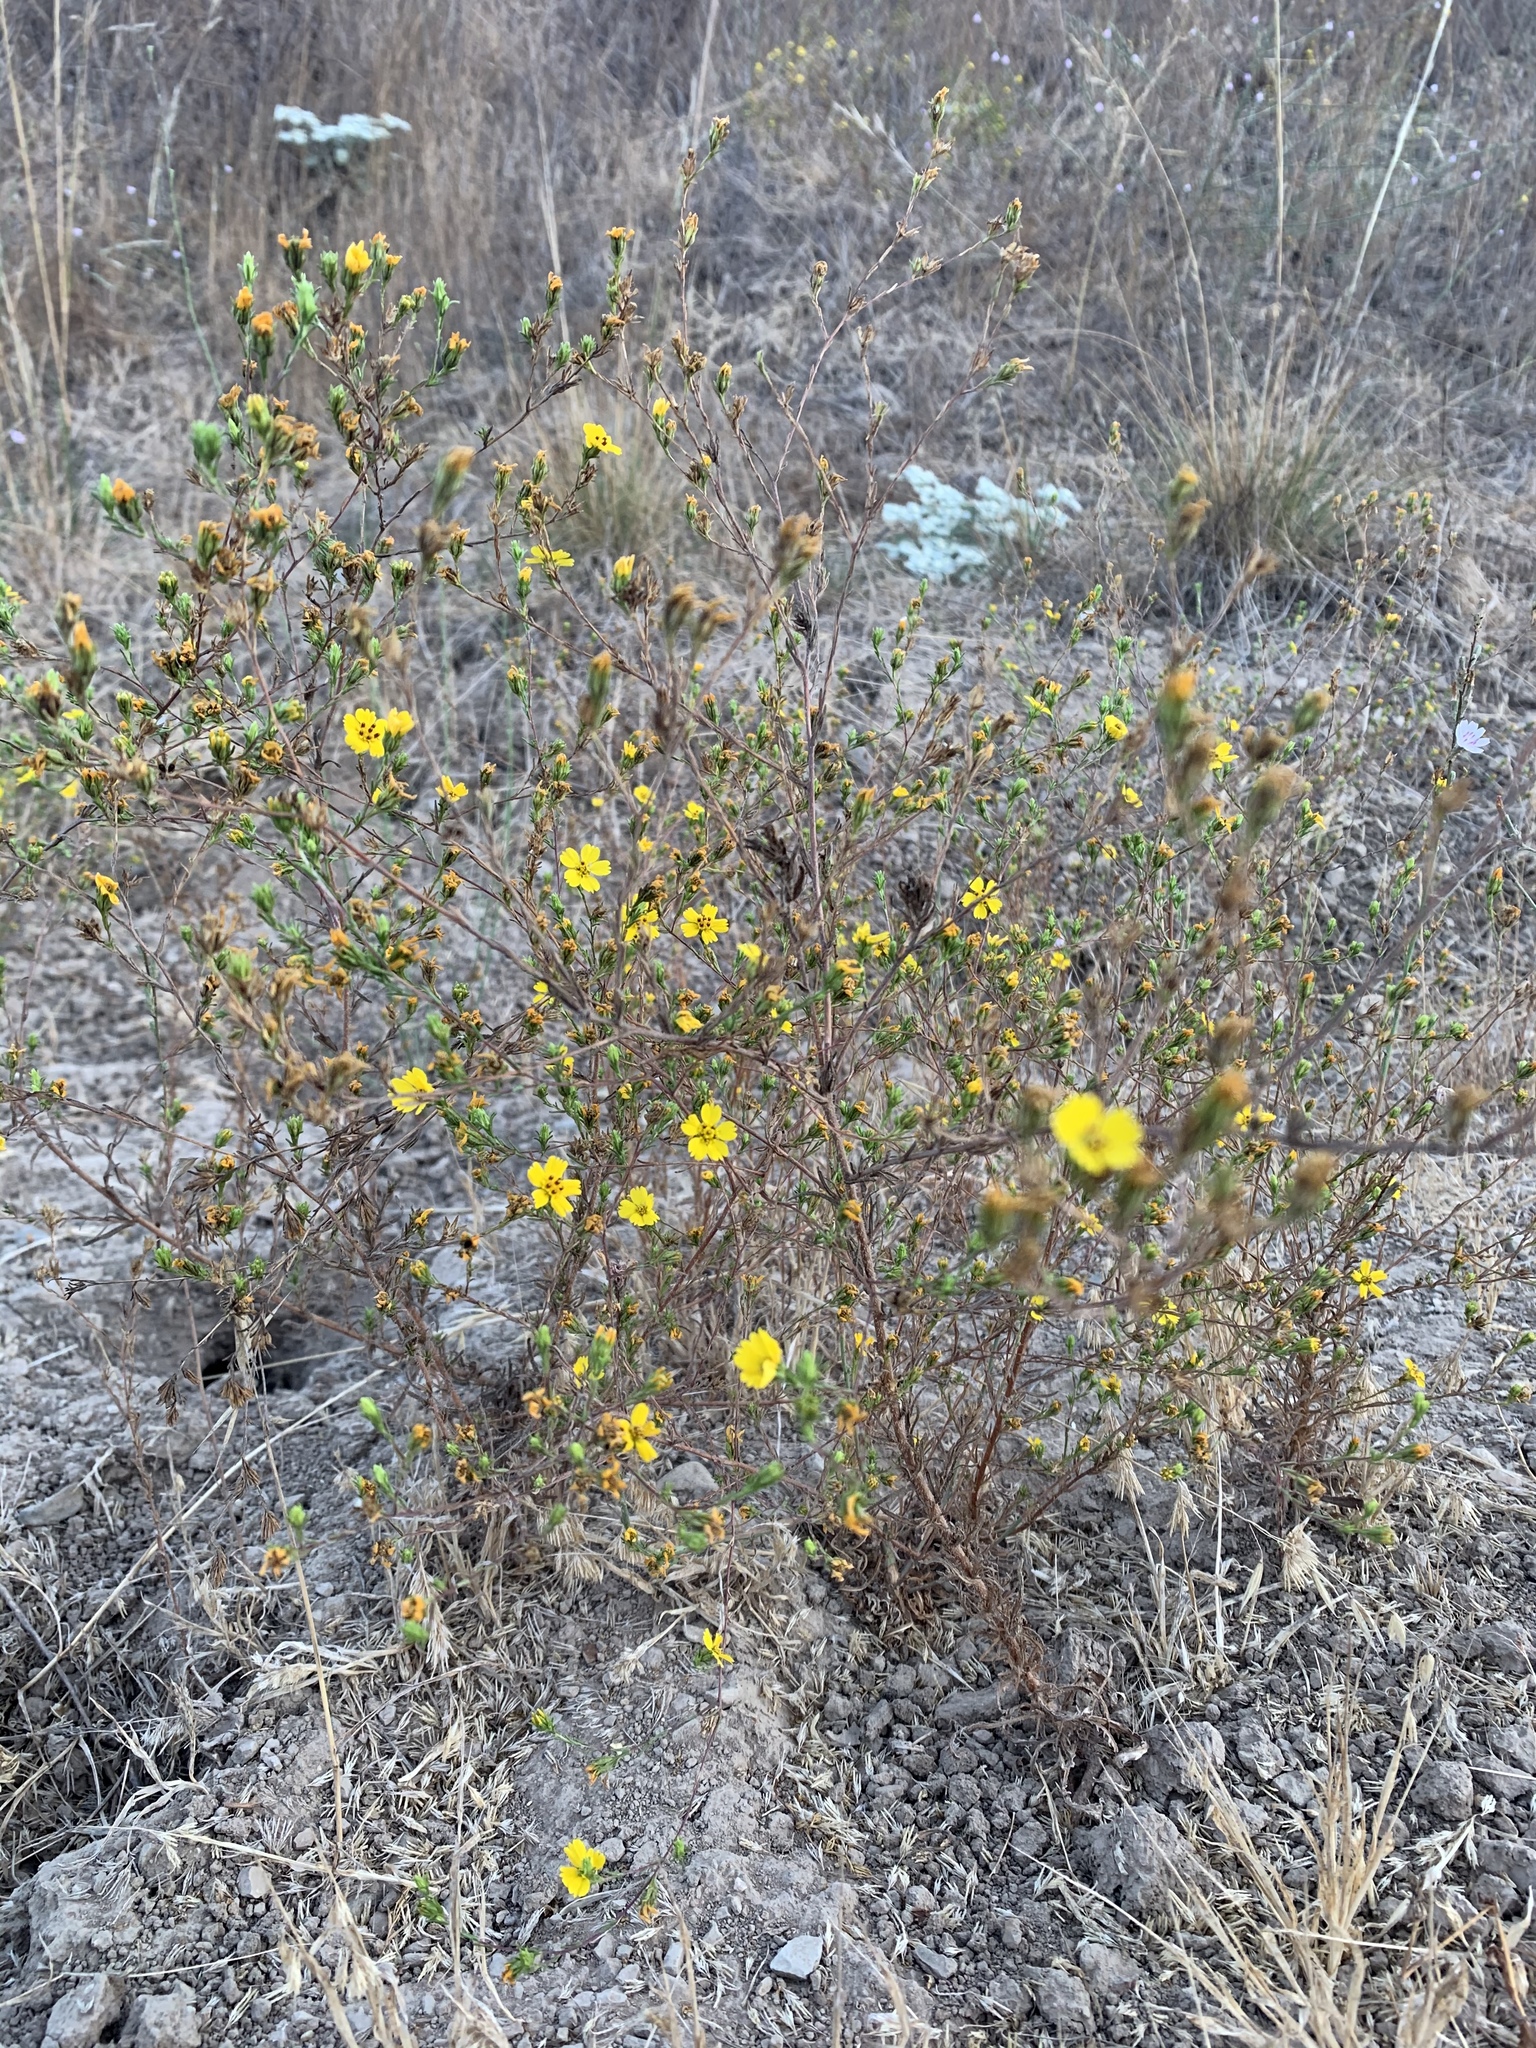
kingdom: Plantae
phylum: Tracheophyta
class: Magnoliopsida
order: Asterales
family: Asteraceae
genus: Deinandra
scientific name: Deinandra fasciculata
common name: Clustered tarweed
